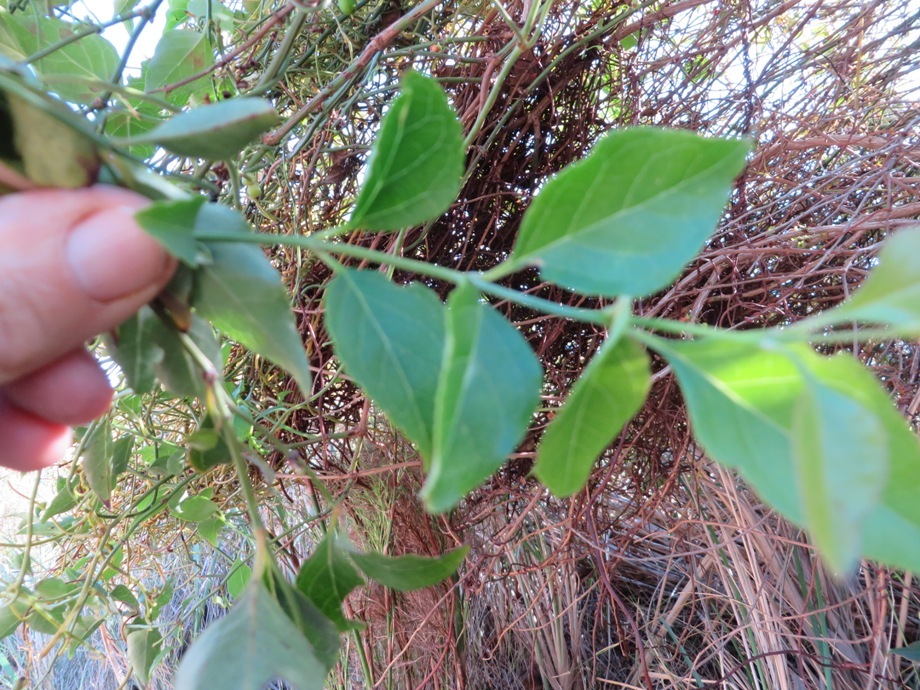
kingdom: Plantae
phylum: Tracheophyta
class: Magnoliopsida
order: Lamiales
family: Stilbaceae
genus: Halleria
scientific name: Halleria elliptica
